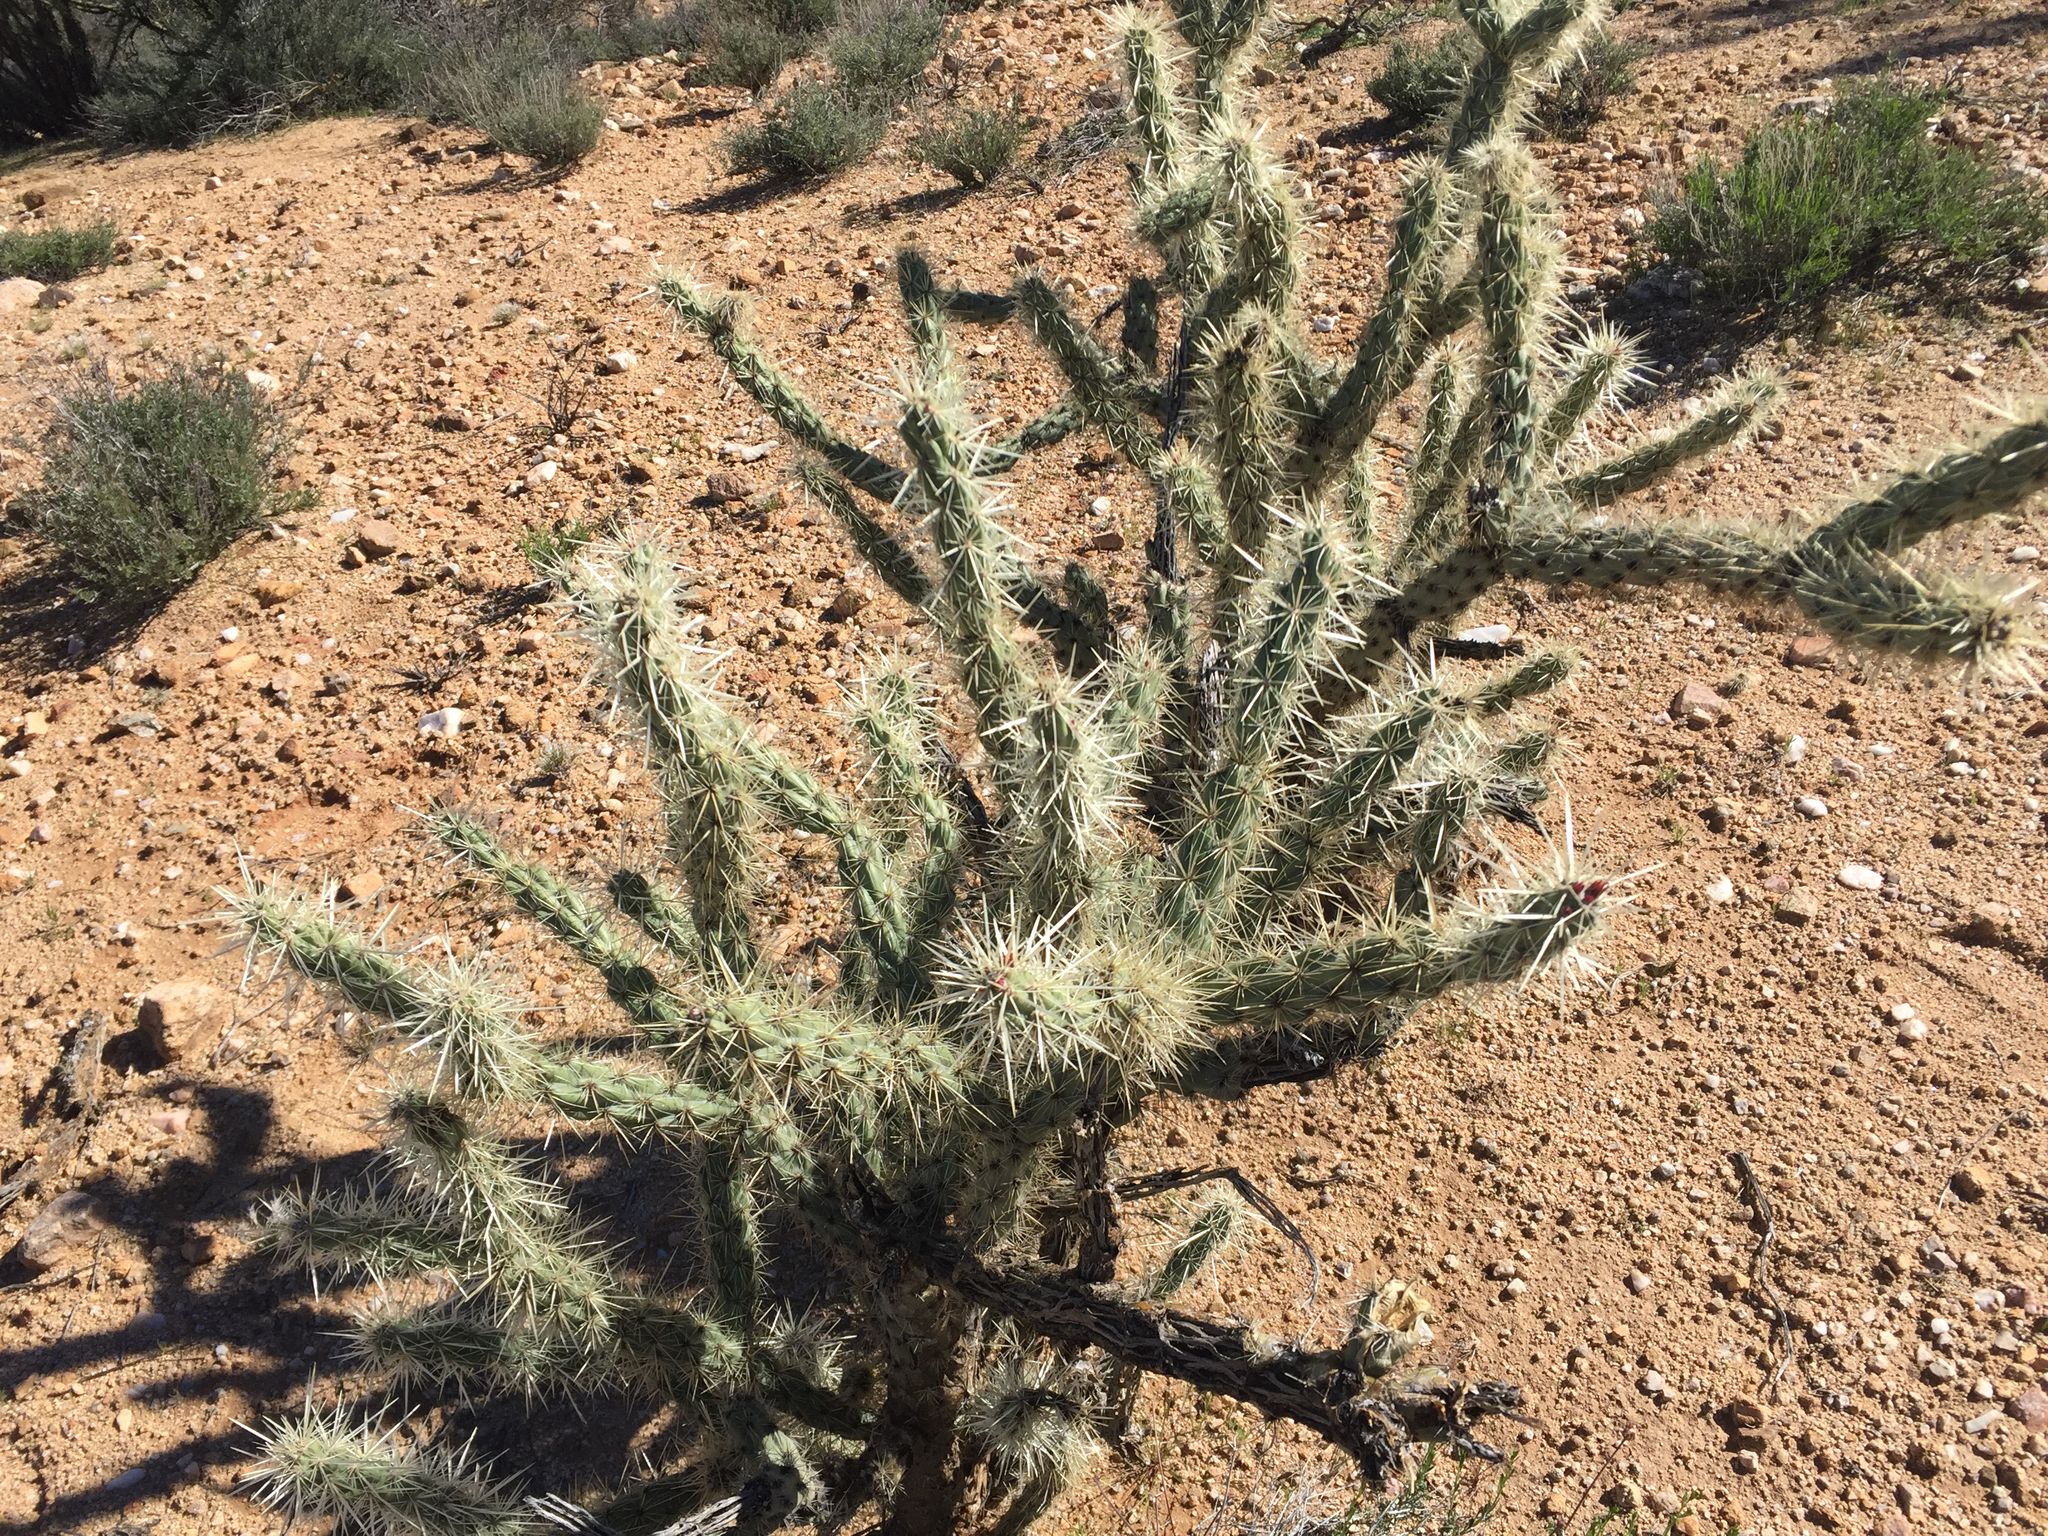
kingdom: Plantae
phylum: Tracheophyta
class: Magnoliopsida
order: Caryophyllales
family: Cactaceae
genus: Cylindropuntia
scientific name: Cylindropuntia acanthocarpa
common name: Buckhorn cholla
